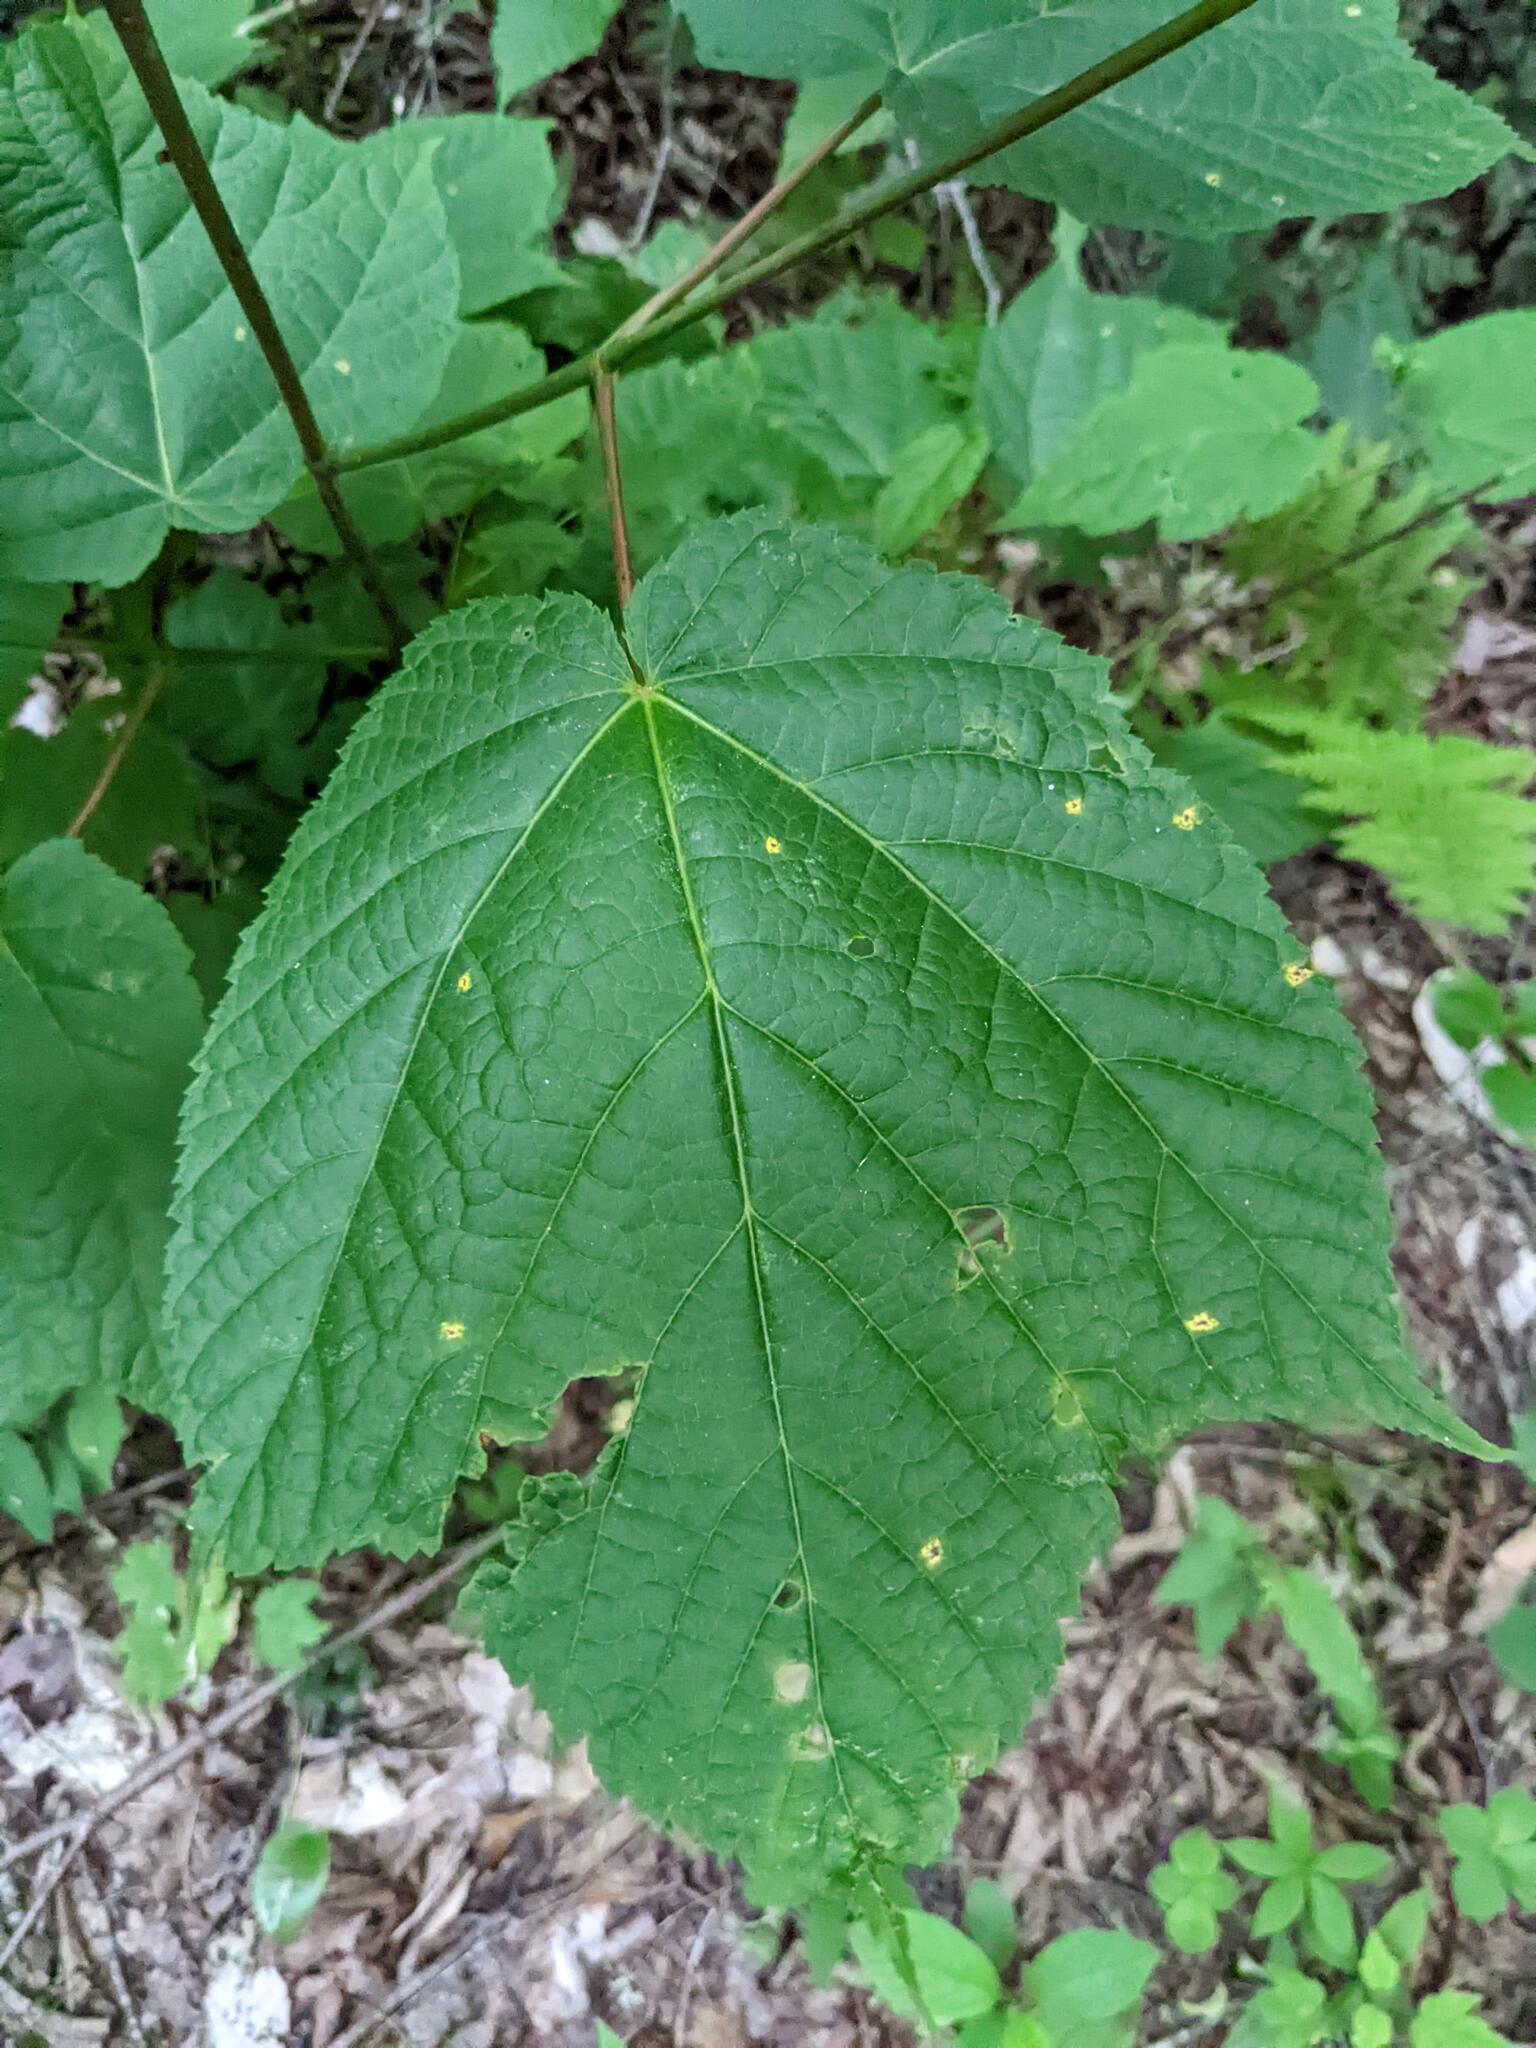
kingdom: Plantae
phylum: Tracheophyta
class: Magnoliopsida
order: Sapindales
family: Sapindaceae
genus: Acer
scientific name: Acer pensylvanicum
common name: Moosewood
